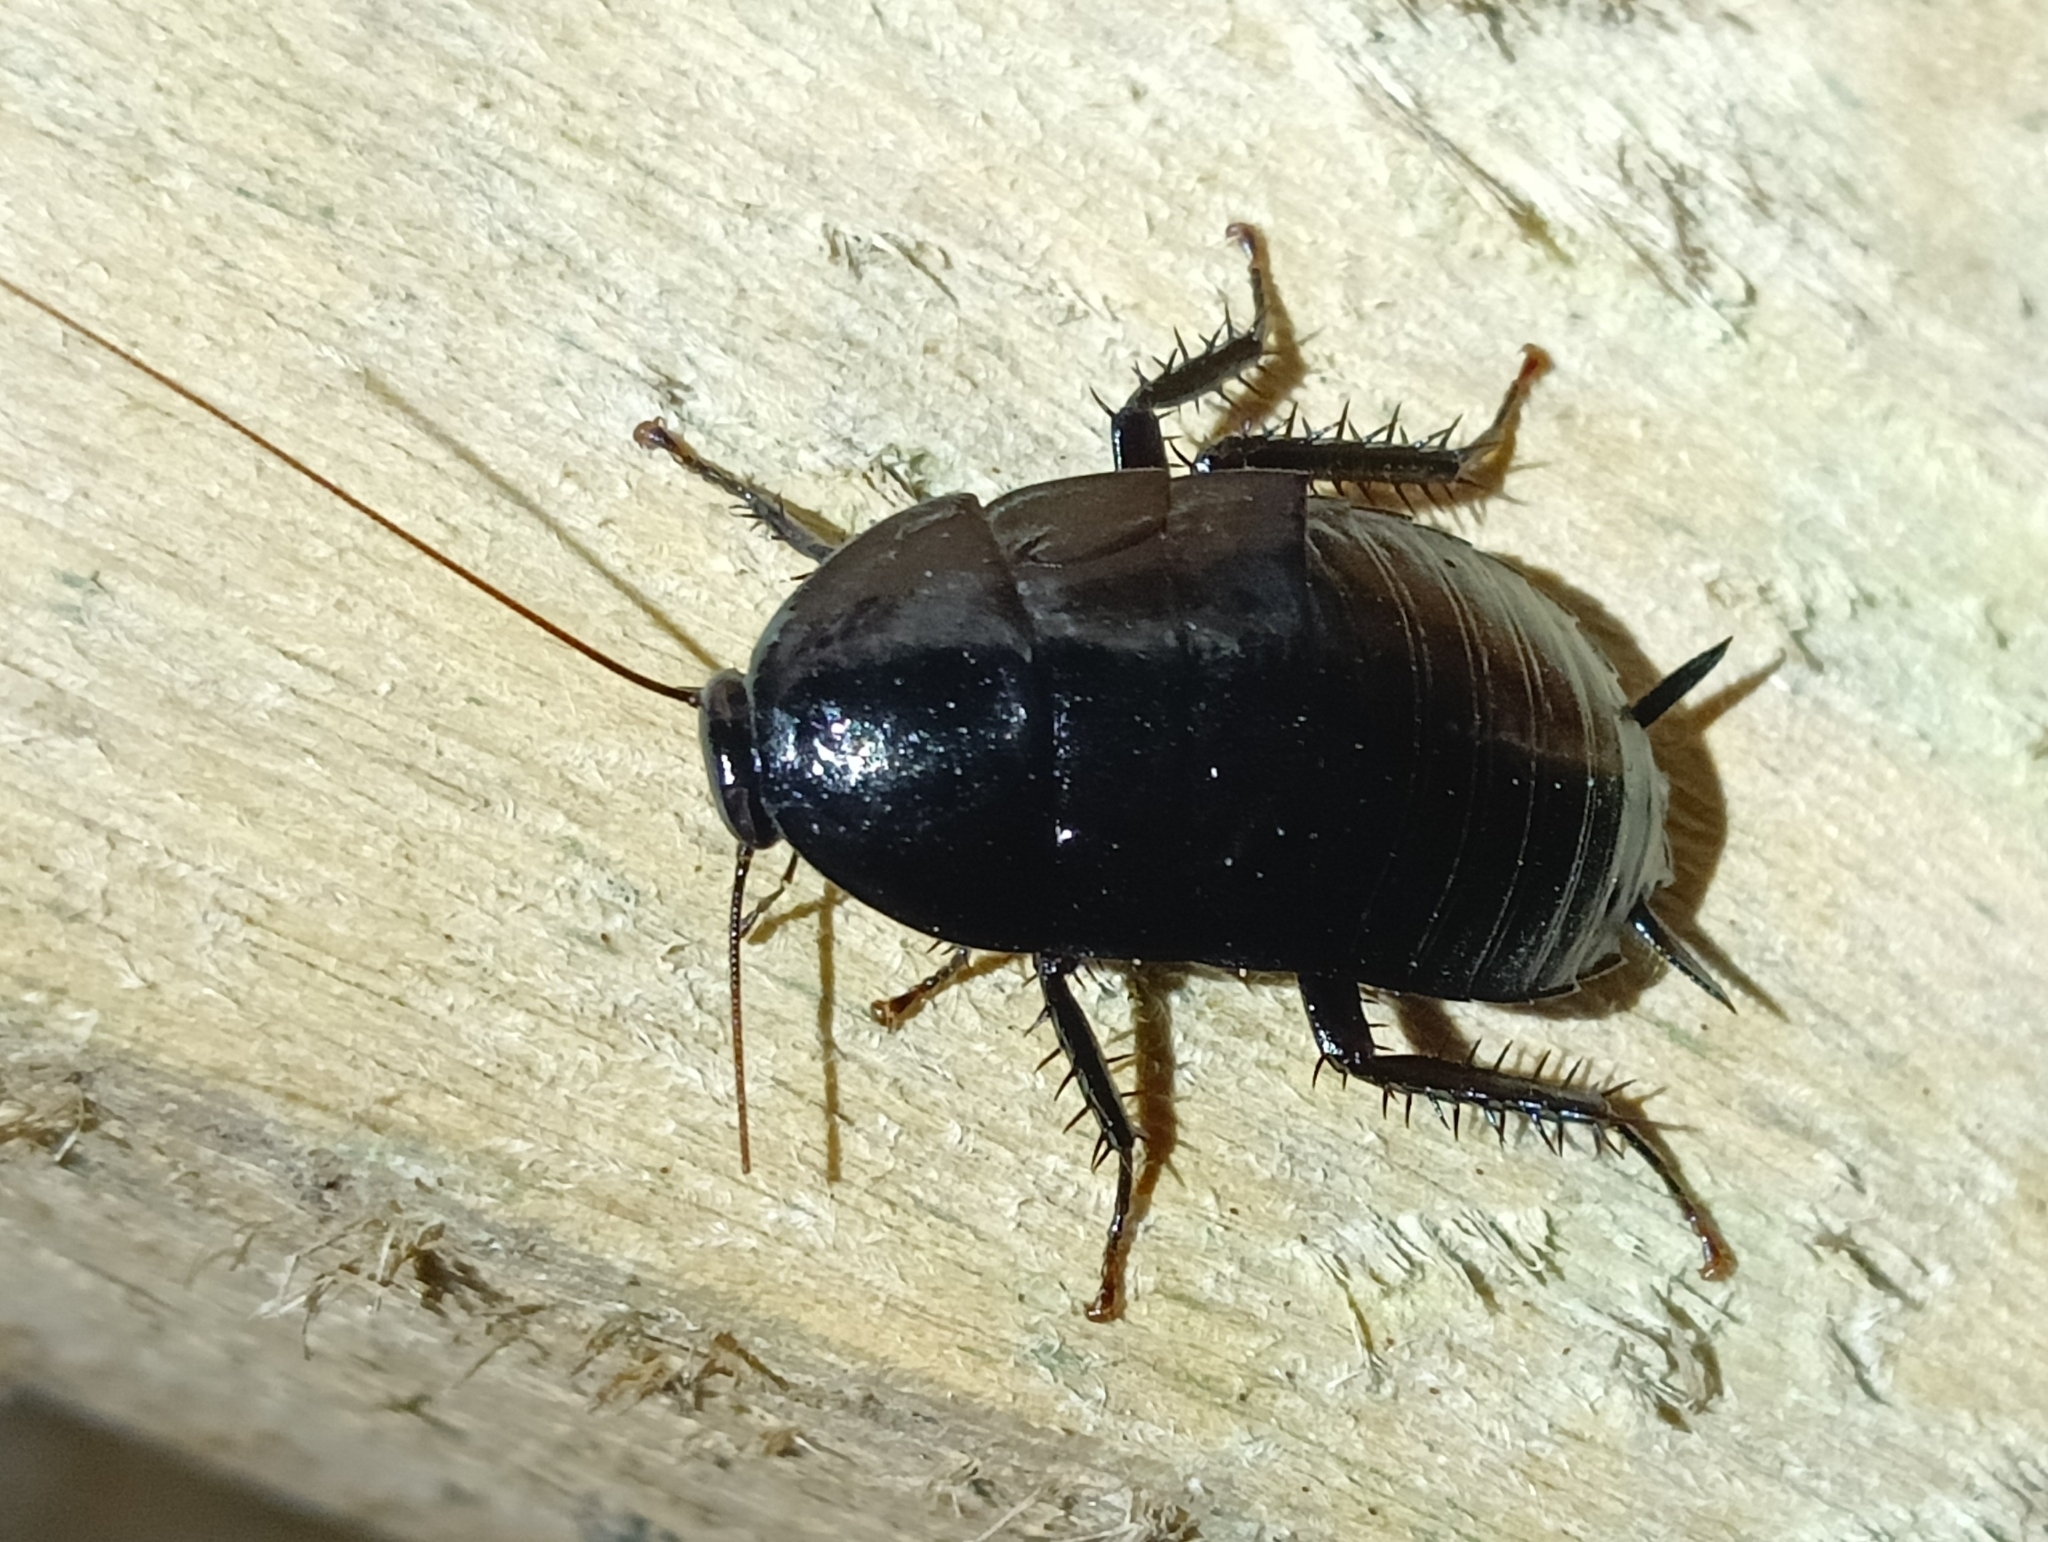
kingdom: Animalia
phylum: Arthropoda
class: Insecta
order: Blattodea
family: Blattidae
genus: Melanozosteria
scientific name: Melanozosteria nitida
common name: Black cockroach
